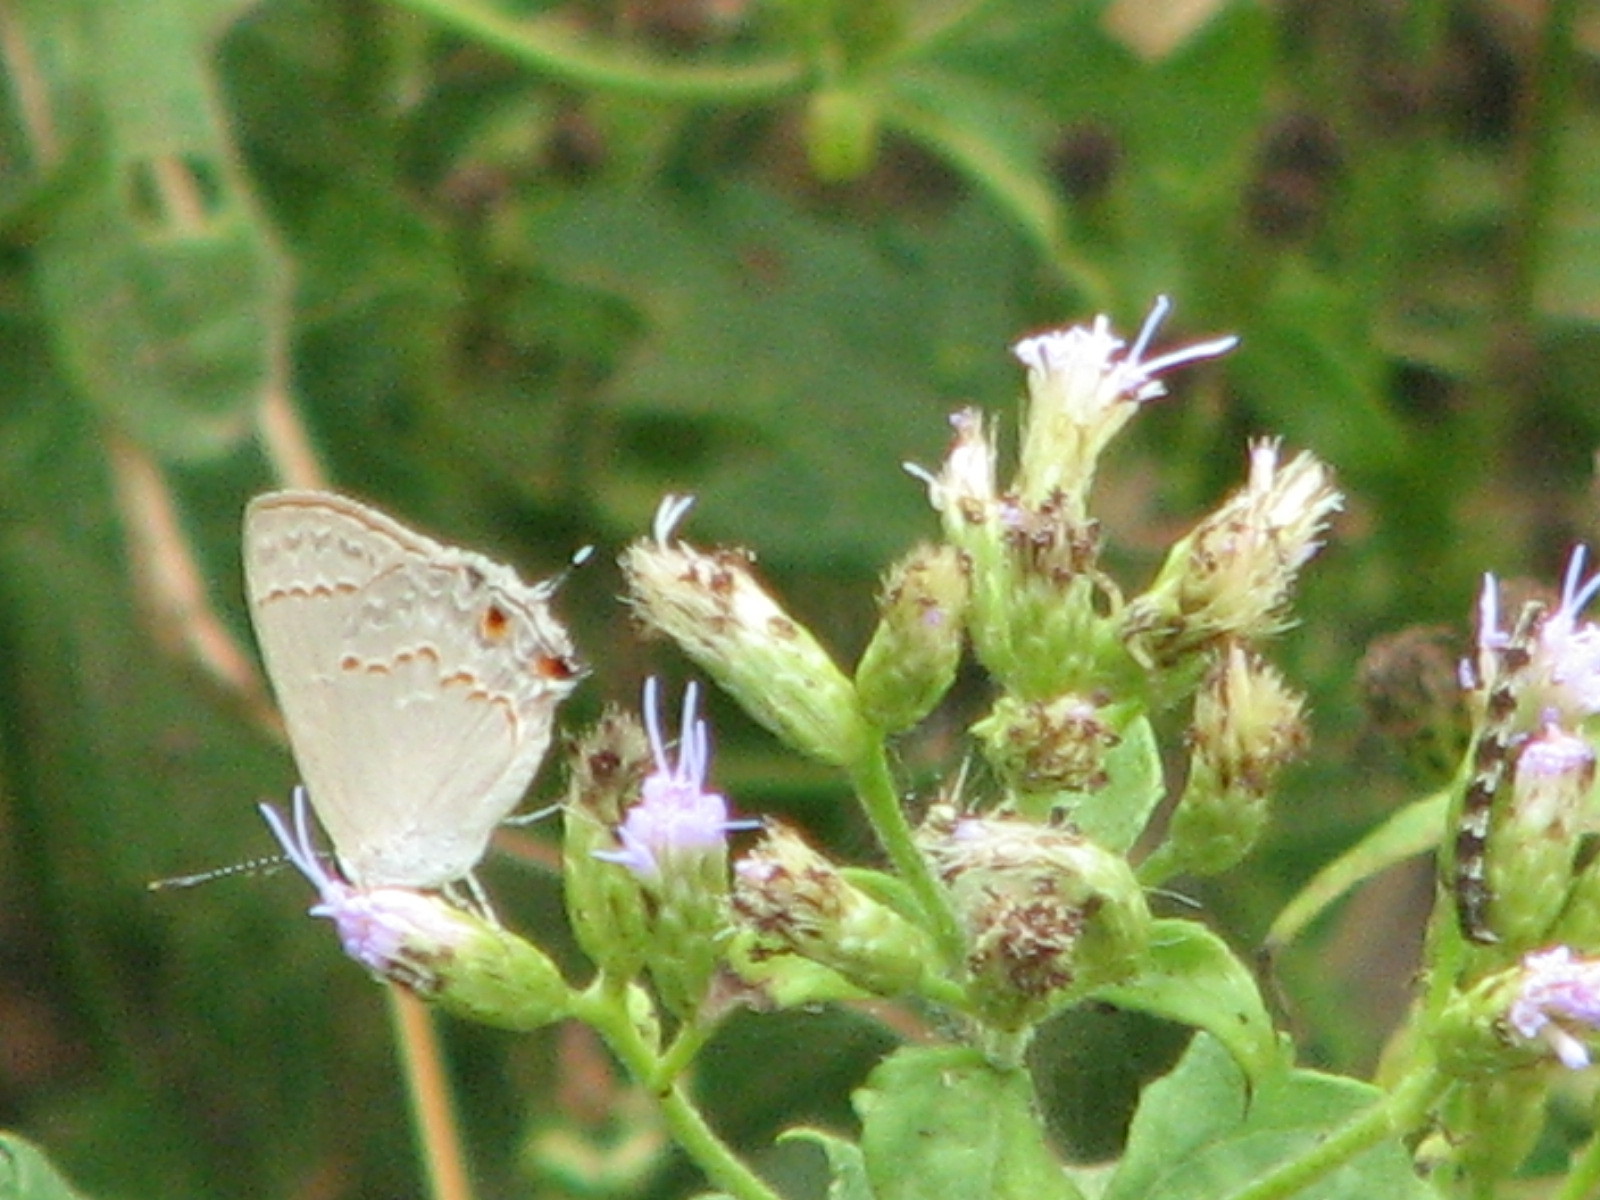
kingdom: Animalia
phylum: Arthropoda
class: Insecta
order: Lepidoptera
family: Lycaenidae
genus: Thecla
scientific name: Thecla rufofusca
